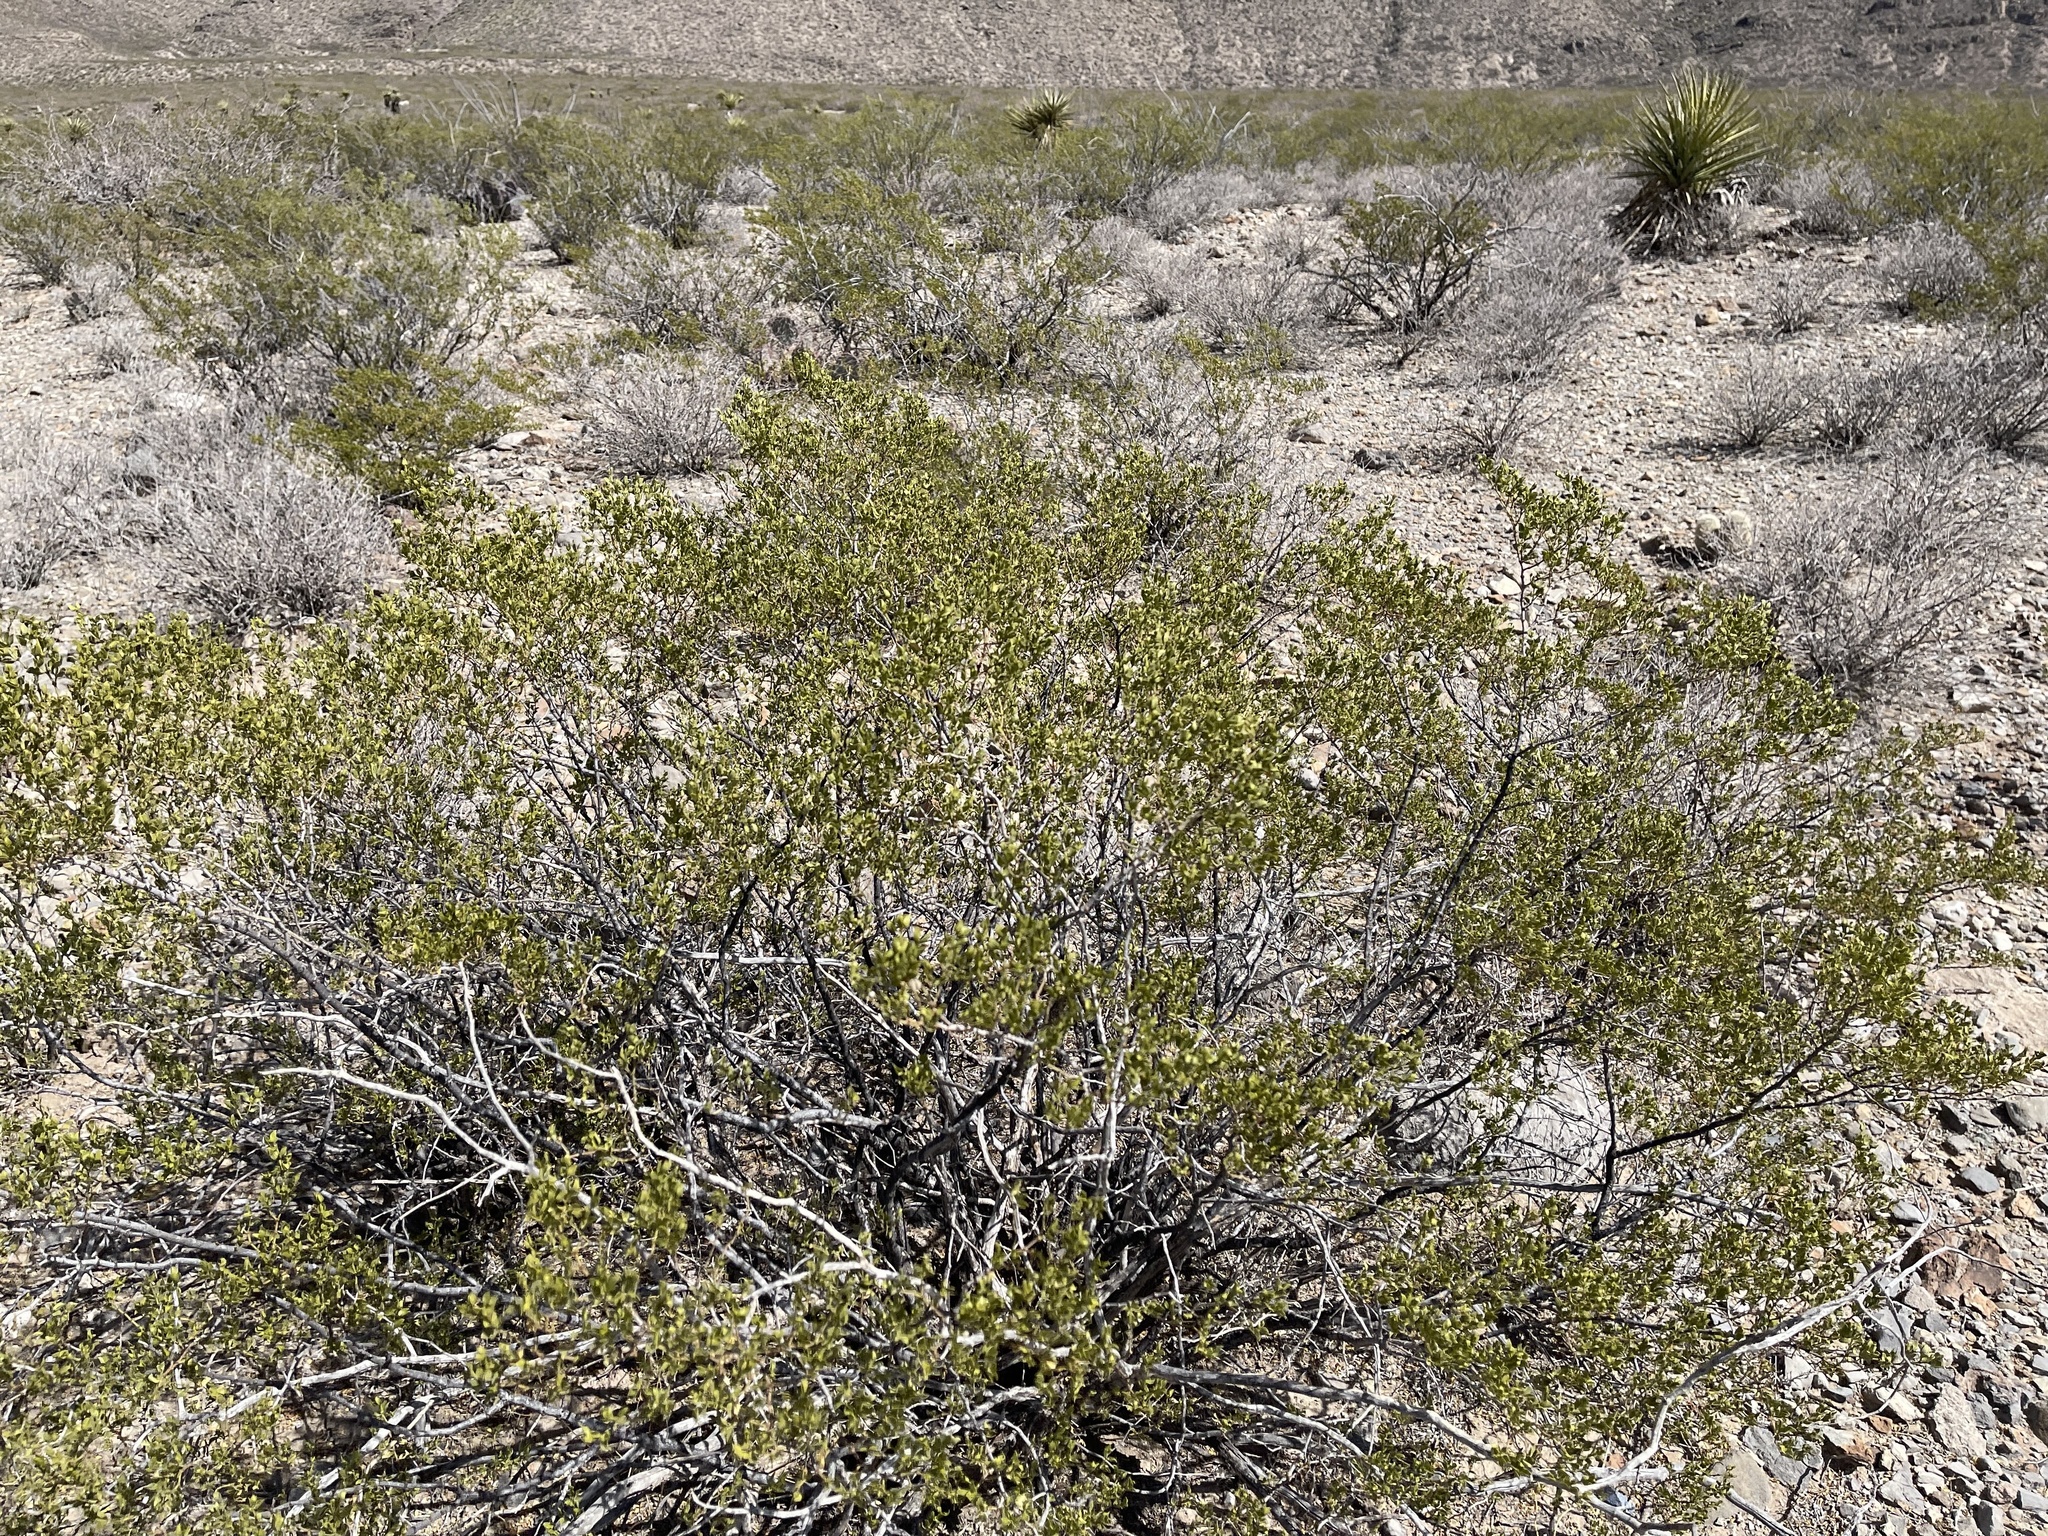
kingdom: Plantae
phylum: Tracheophyta
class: Magnoliopsida
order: Zygophyllales
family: Zygophyllaceae
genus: Larrea
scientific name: Larrea tridentata
